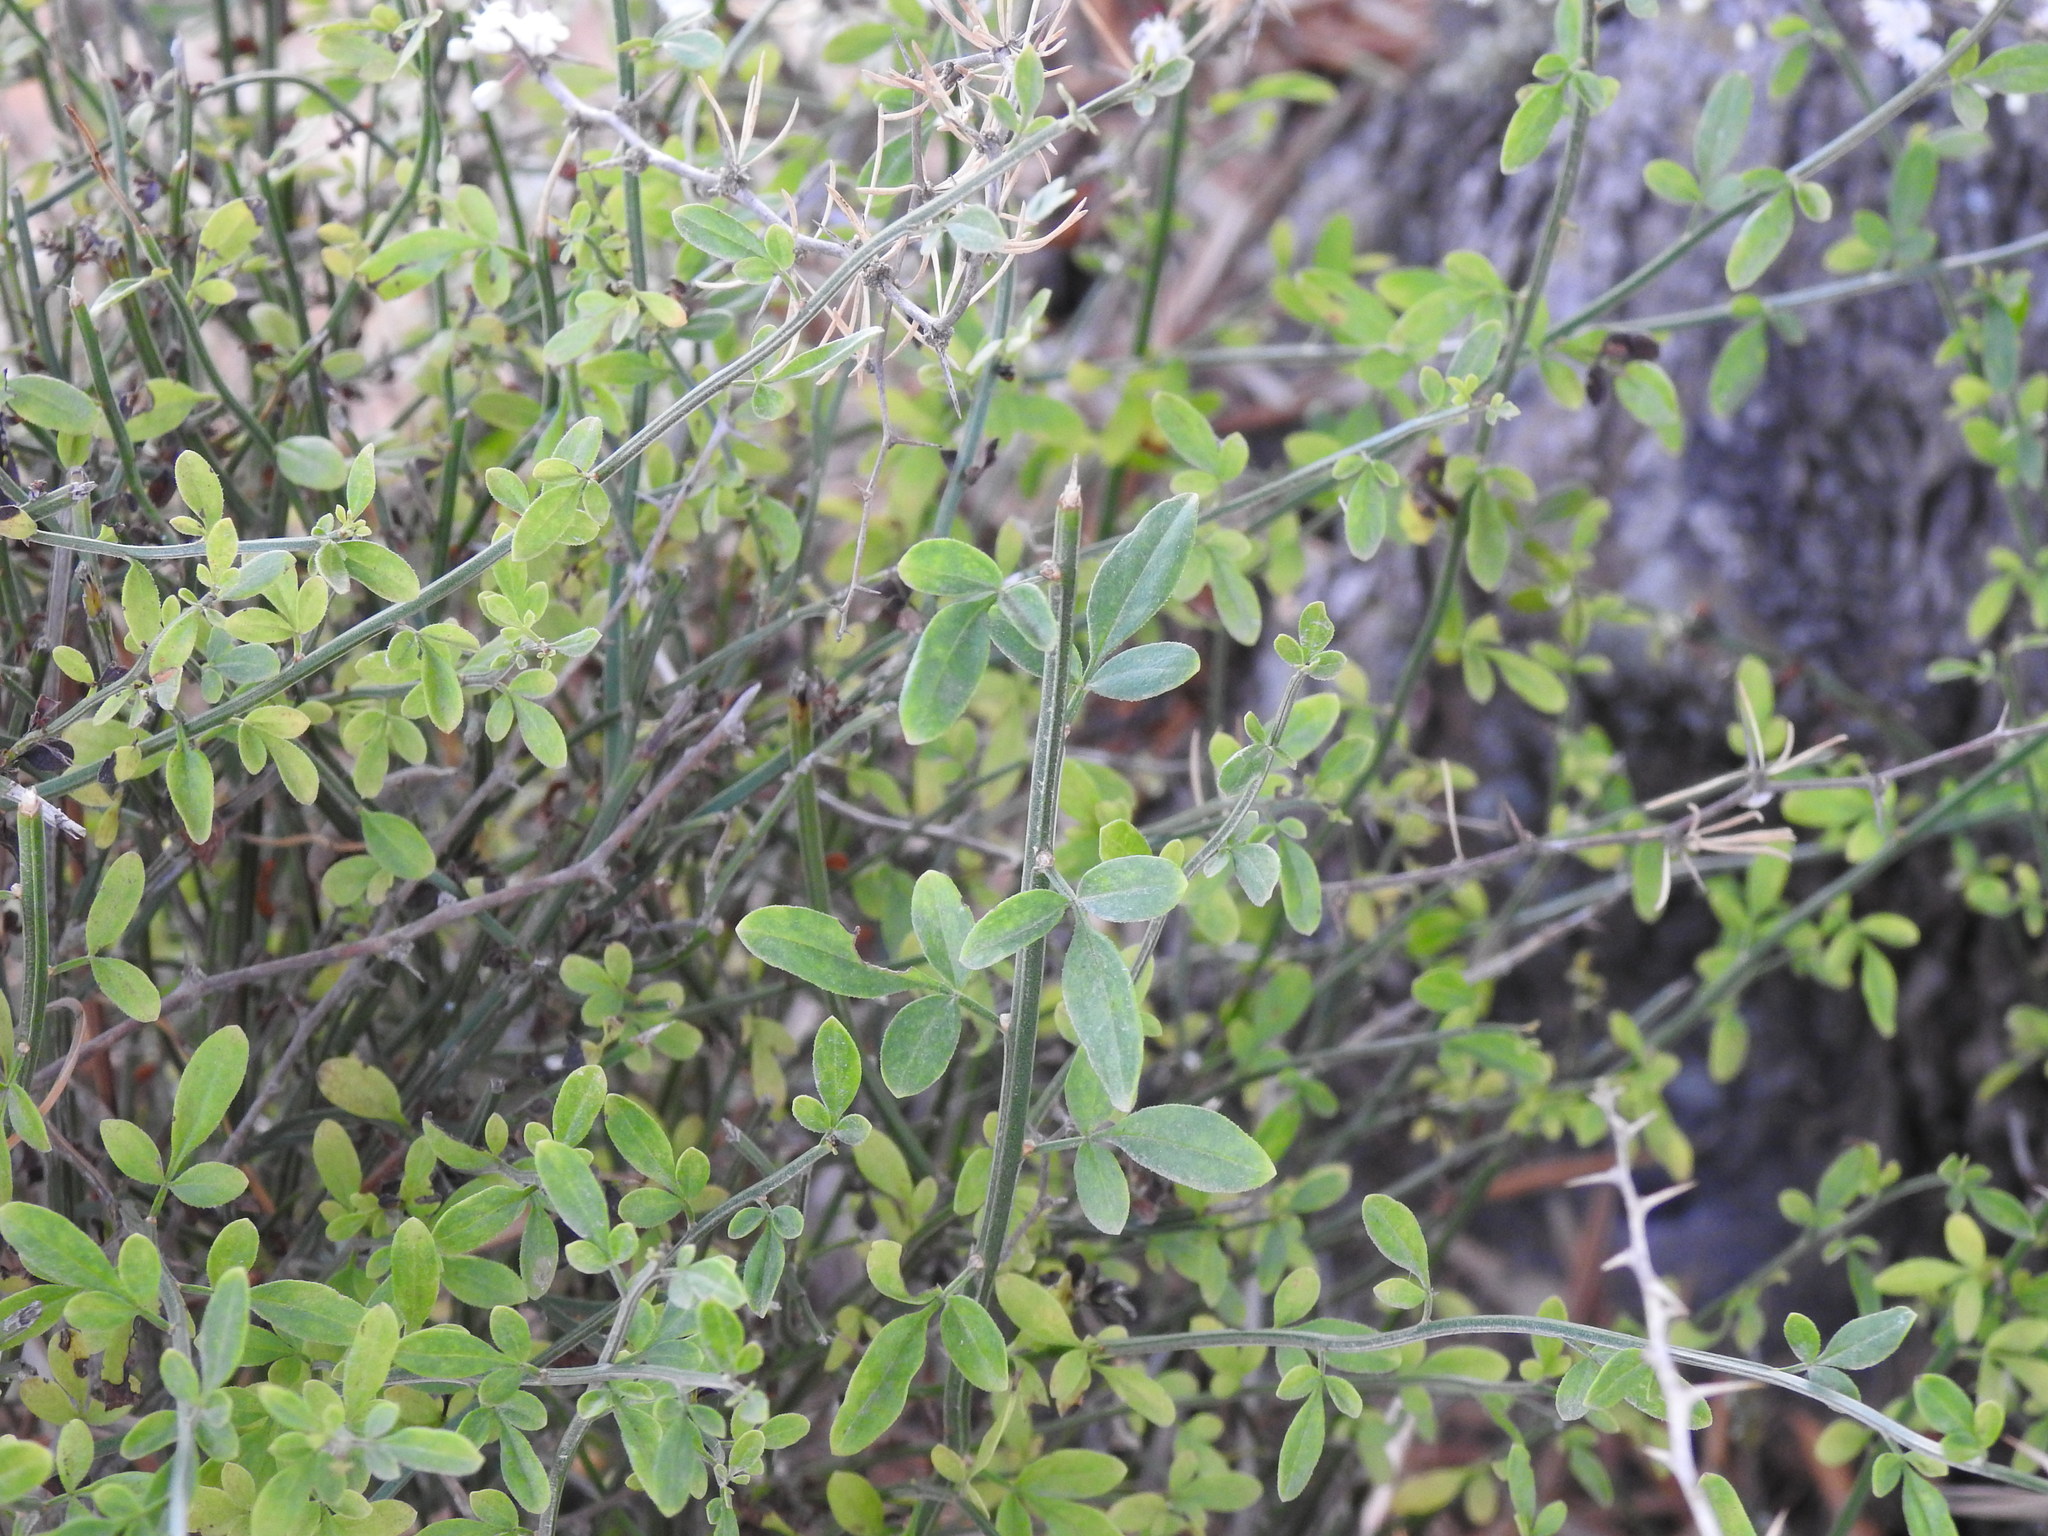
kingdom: Plantae
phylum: Tracheophyta
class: Magnoliopsida
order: Lamiales
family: Oleaceae
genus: Chrysojasminum
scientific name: Chrysojasminum fruticans
